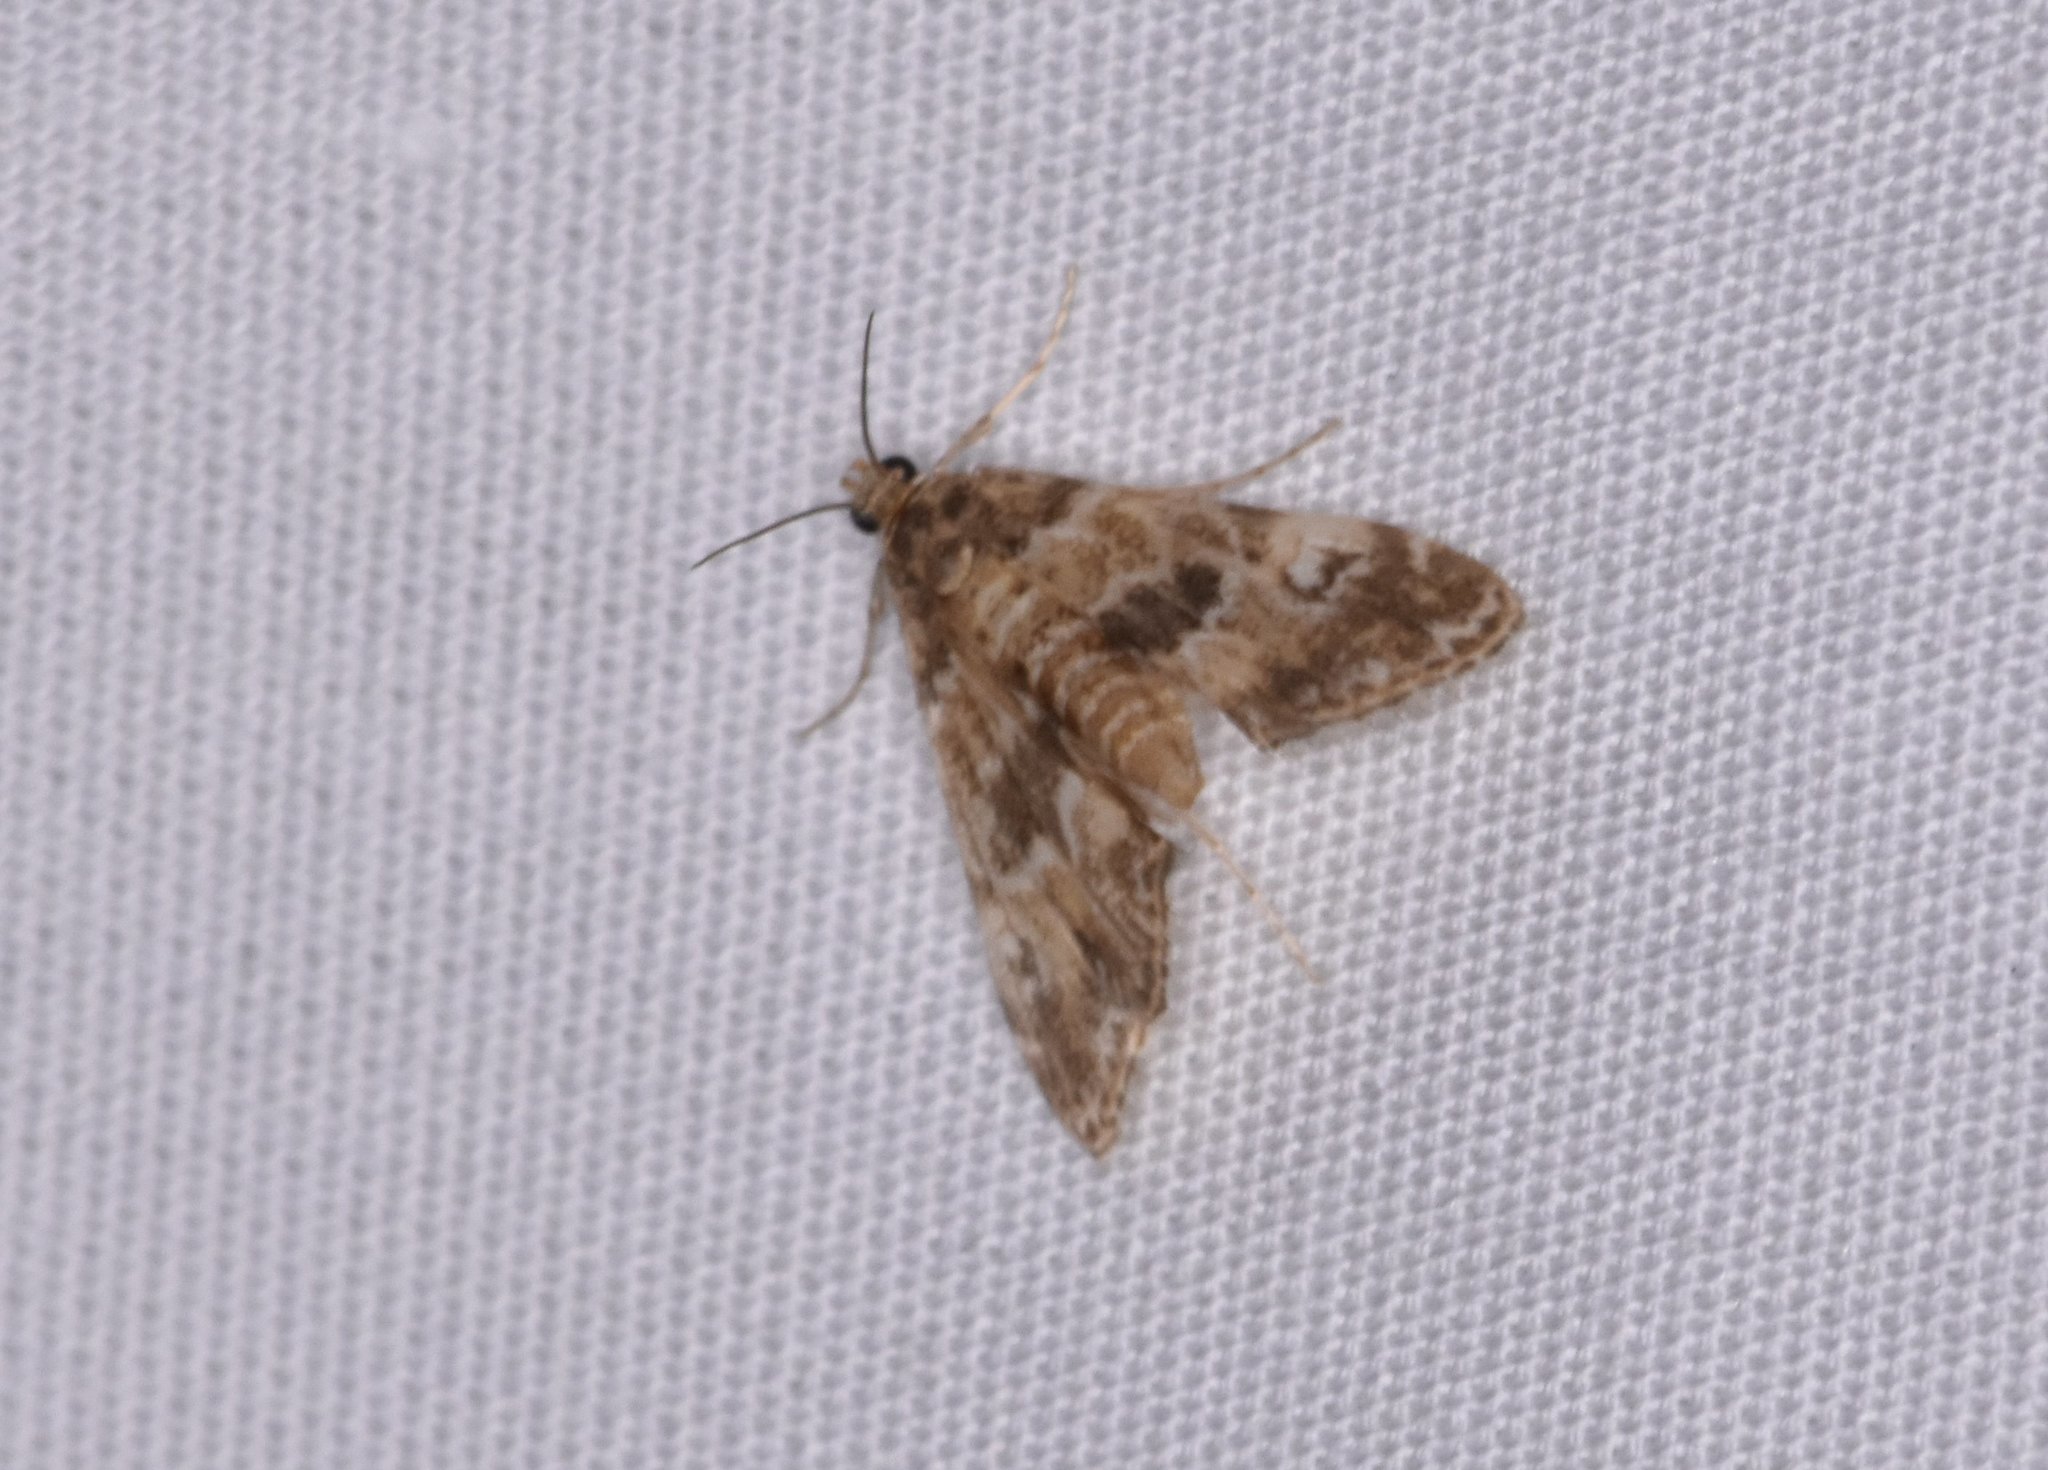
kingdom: Animalia
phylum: Arthropoda
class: Insecta
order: Lepidoptera
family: Crambidae
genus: Elophila
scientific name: Elophila gyralis
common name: Waterlily borer moth
